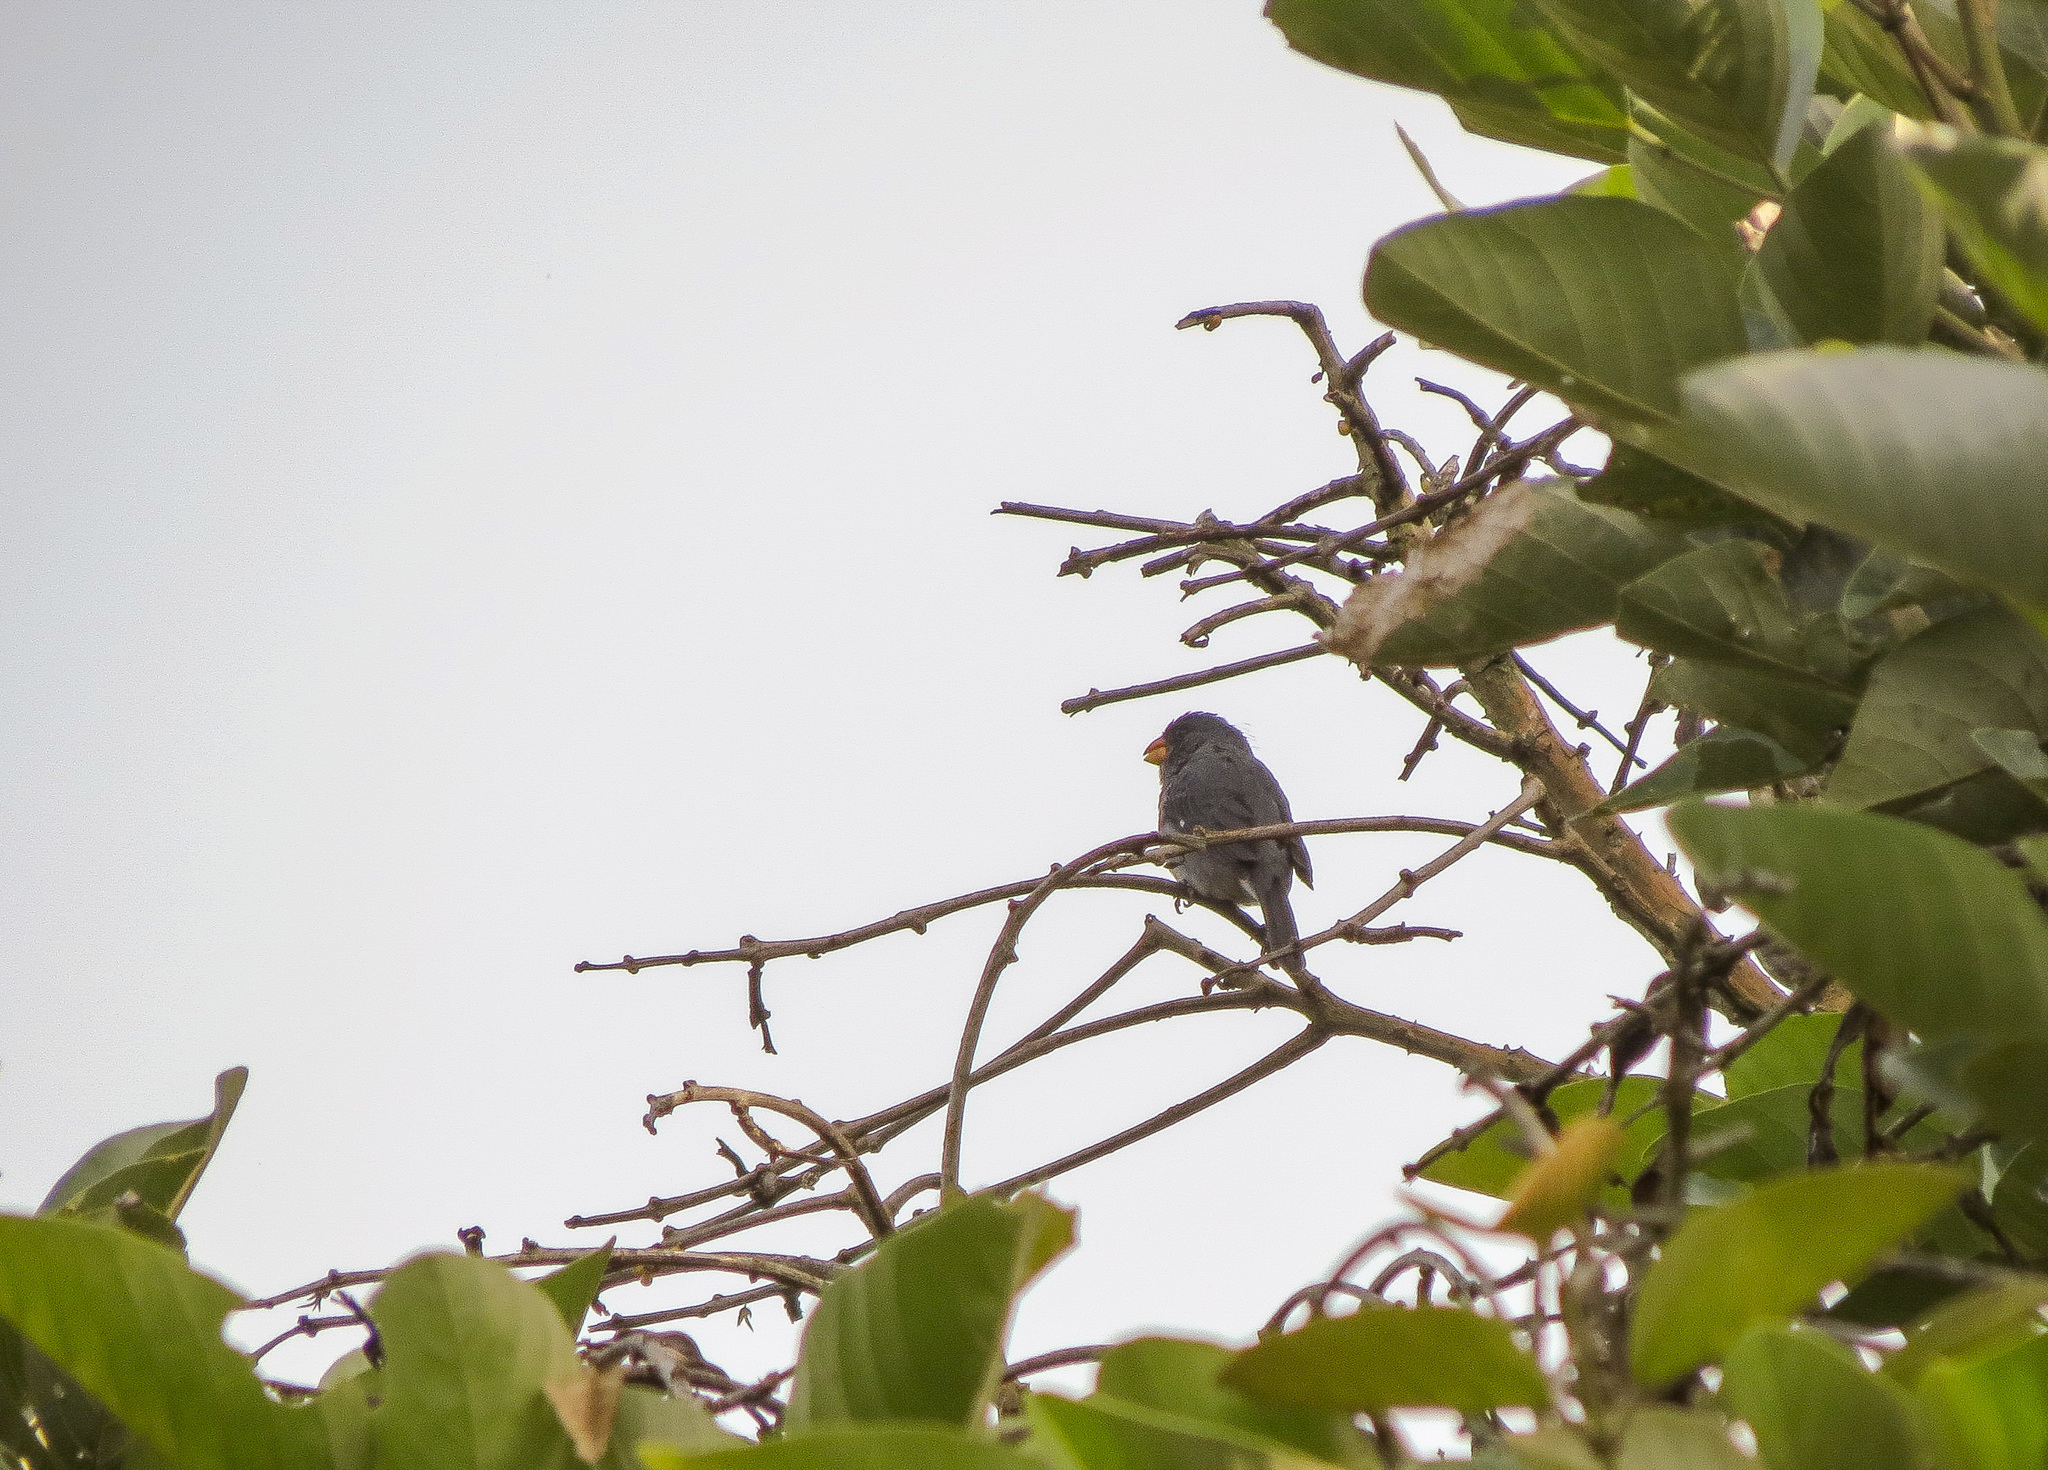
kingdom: Animalia
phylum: Chordata
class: Aves
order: Passeriformes
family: Thraupidae
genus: Sporophila
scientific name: Sporophila intermedia
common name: Grey seedeater
